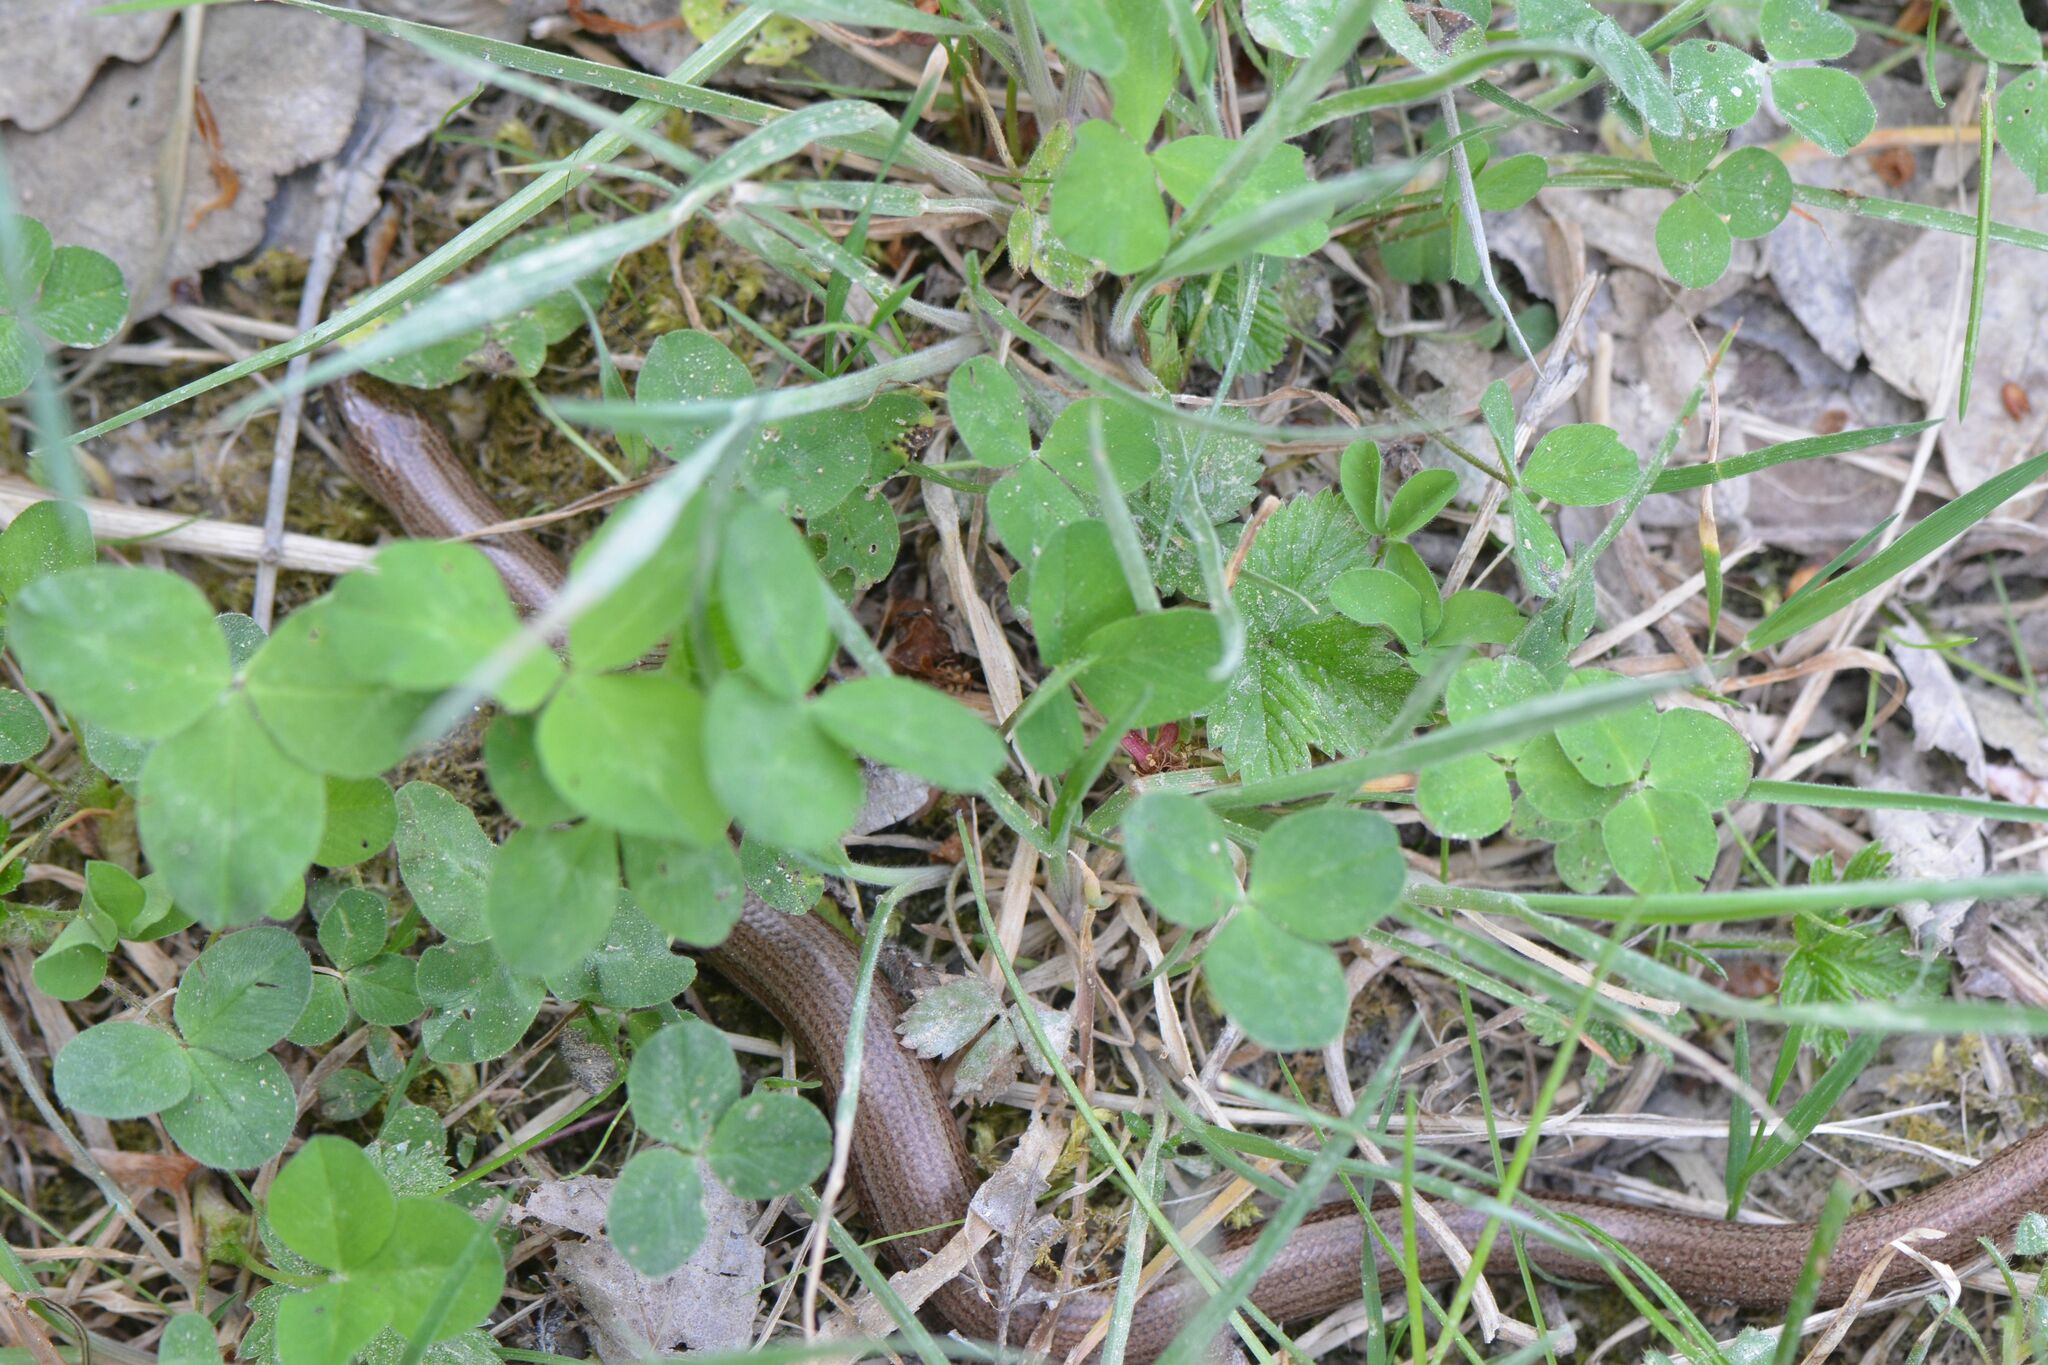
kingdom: Animalia
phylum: Chordata
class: Squamata
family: Anguidae
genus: Anguis
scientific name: Anguis fragilis
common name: Slow worm
